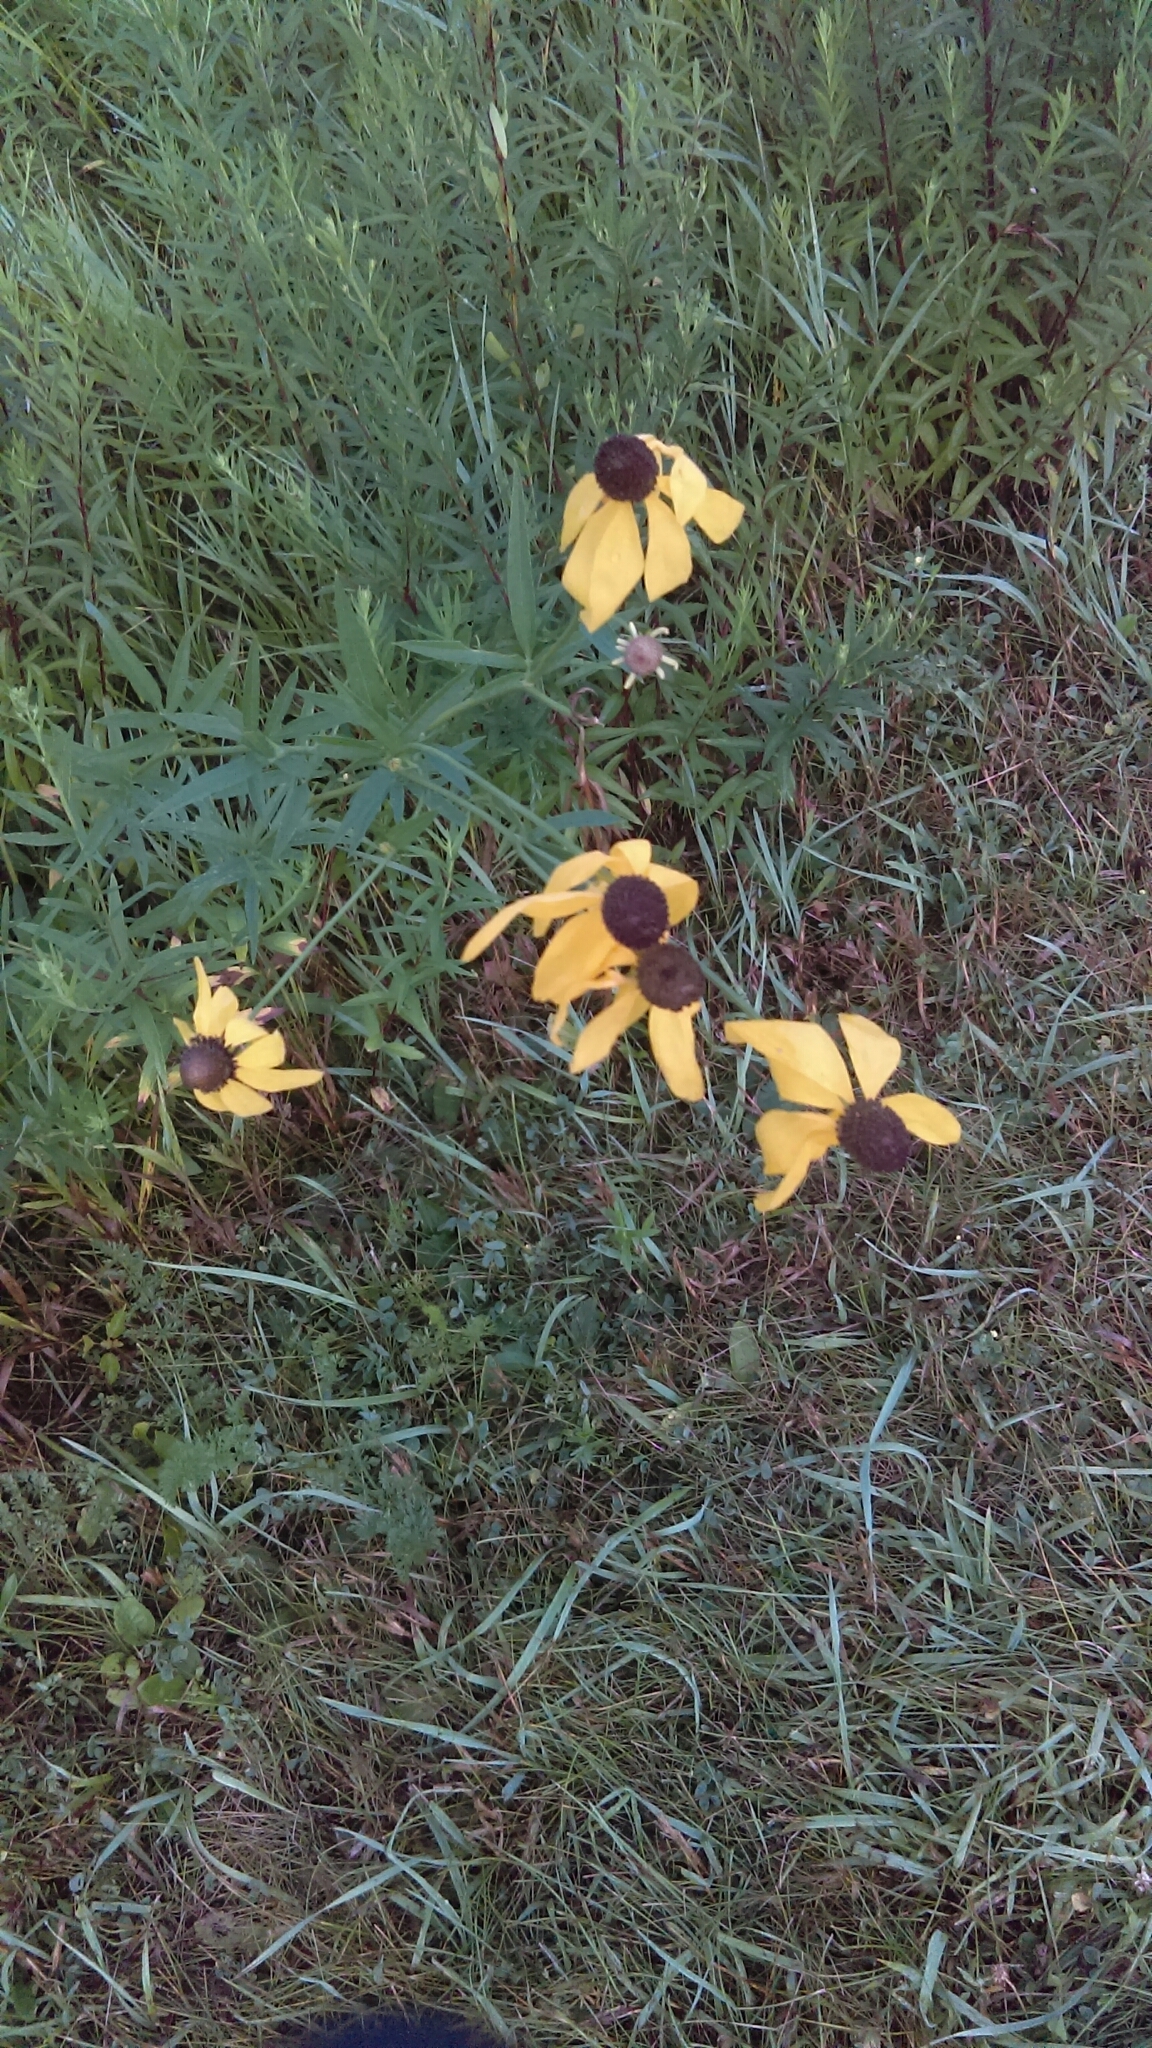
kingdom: Plantae
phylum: Tracheophyta
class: Magnoliopsida
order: Asterales
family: Asteraceae
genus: Ratibida
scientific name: Ratibida pinnata
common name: Drooping prairie-coneflower
